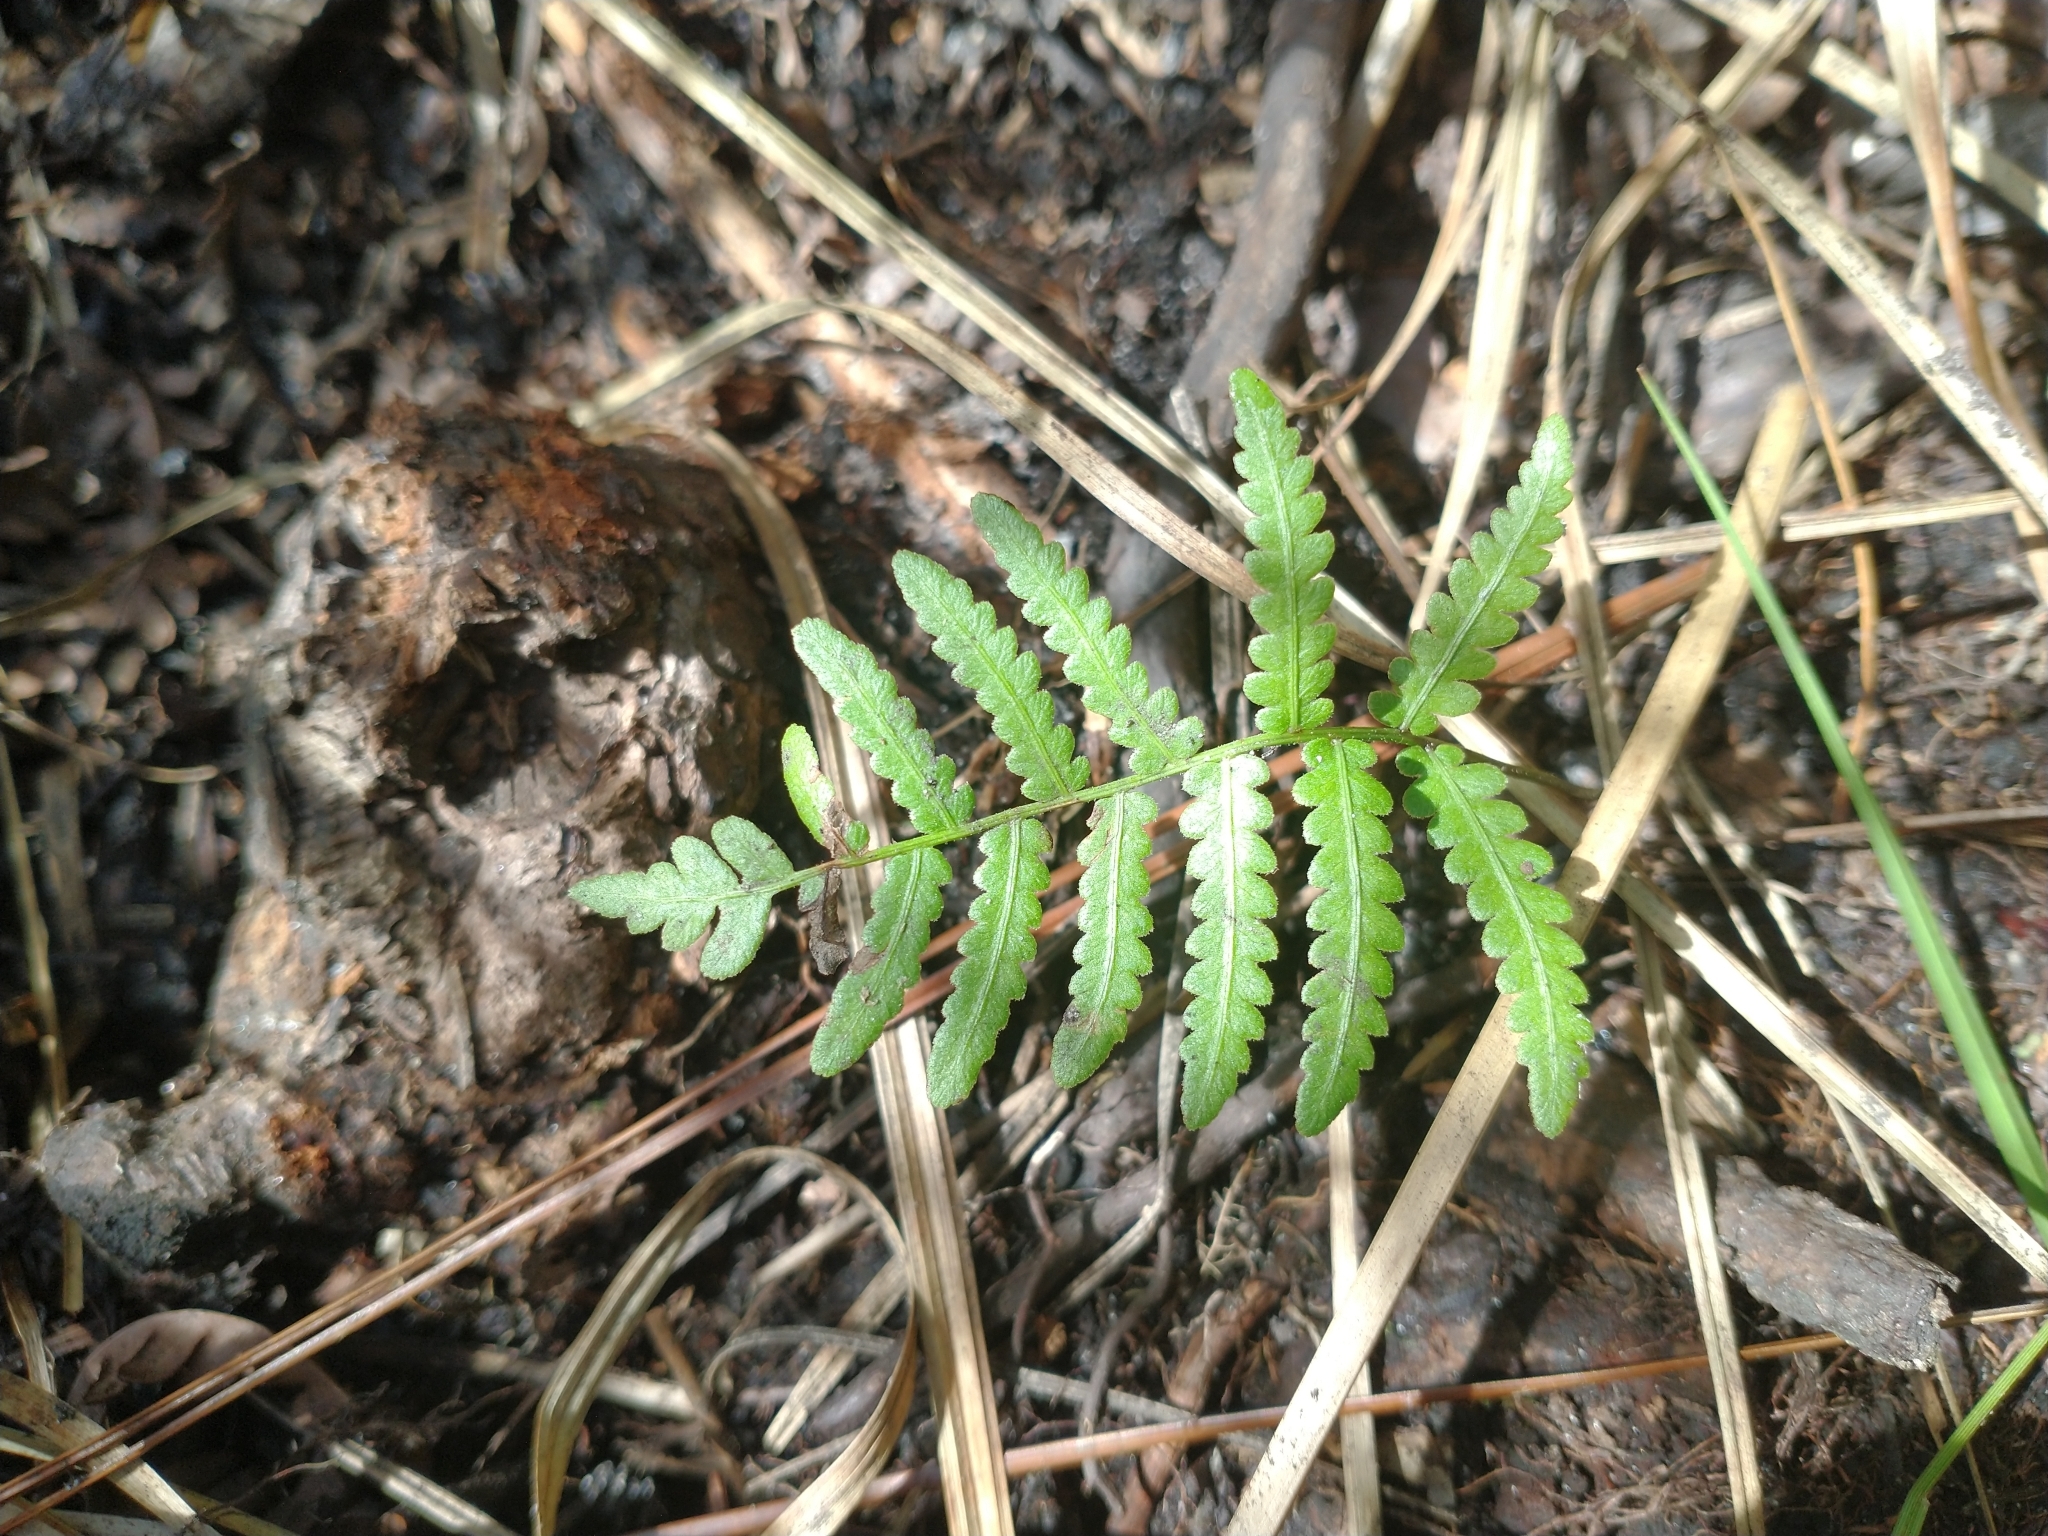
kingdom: Plantae
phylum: Tracheophyta
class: Polypodiopsida
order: Polypodiales
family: Blechnaceae
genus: Anchistea
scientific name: Anchistea virginica
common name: Virginia chain fern
